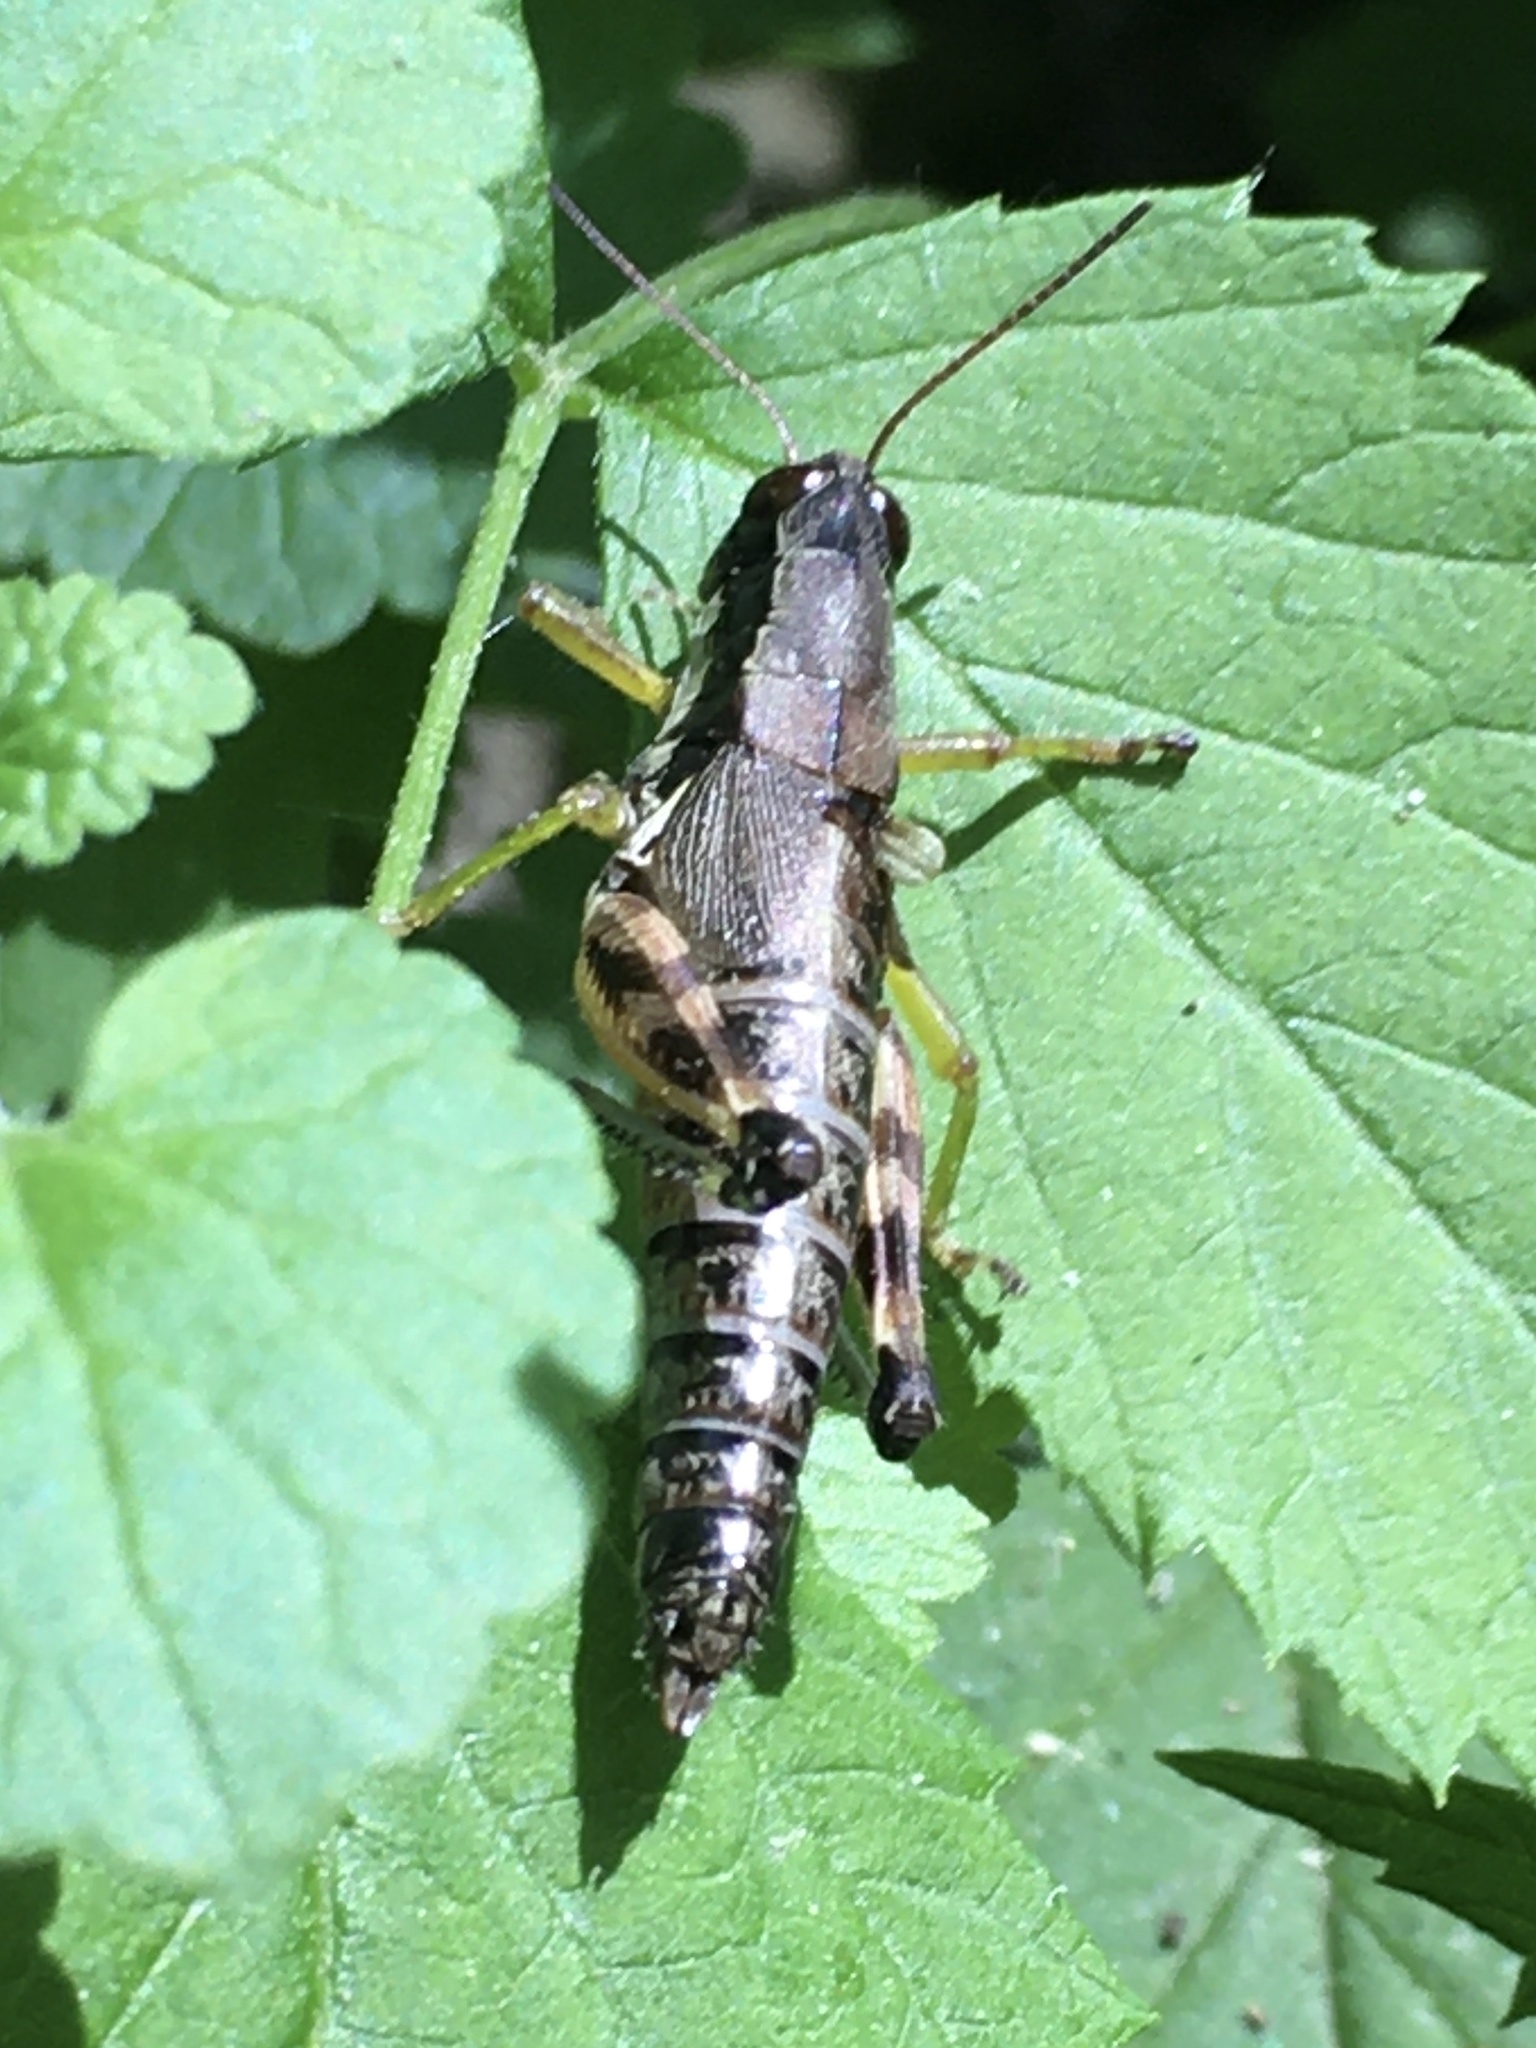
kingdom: Animalia
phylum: Arthropoda
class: Insecta
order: Orthoptera
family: Acrididae
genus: Melanoplus
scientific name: Melanoplus viridipes
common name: Green-legged locust
